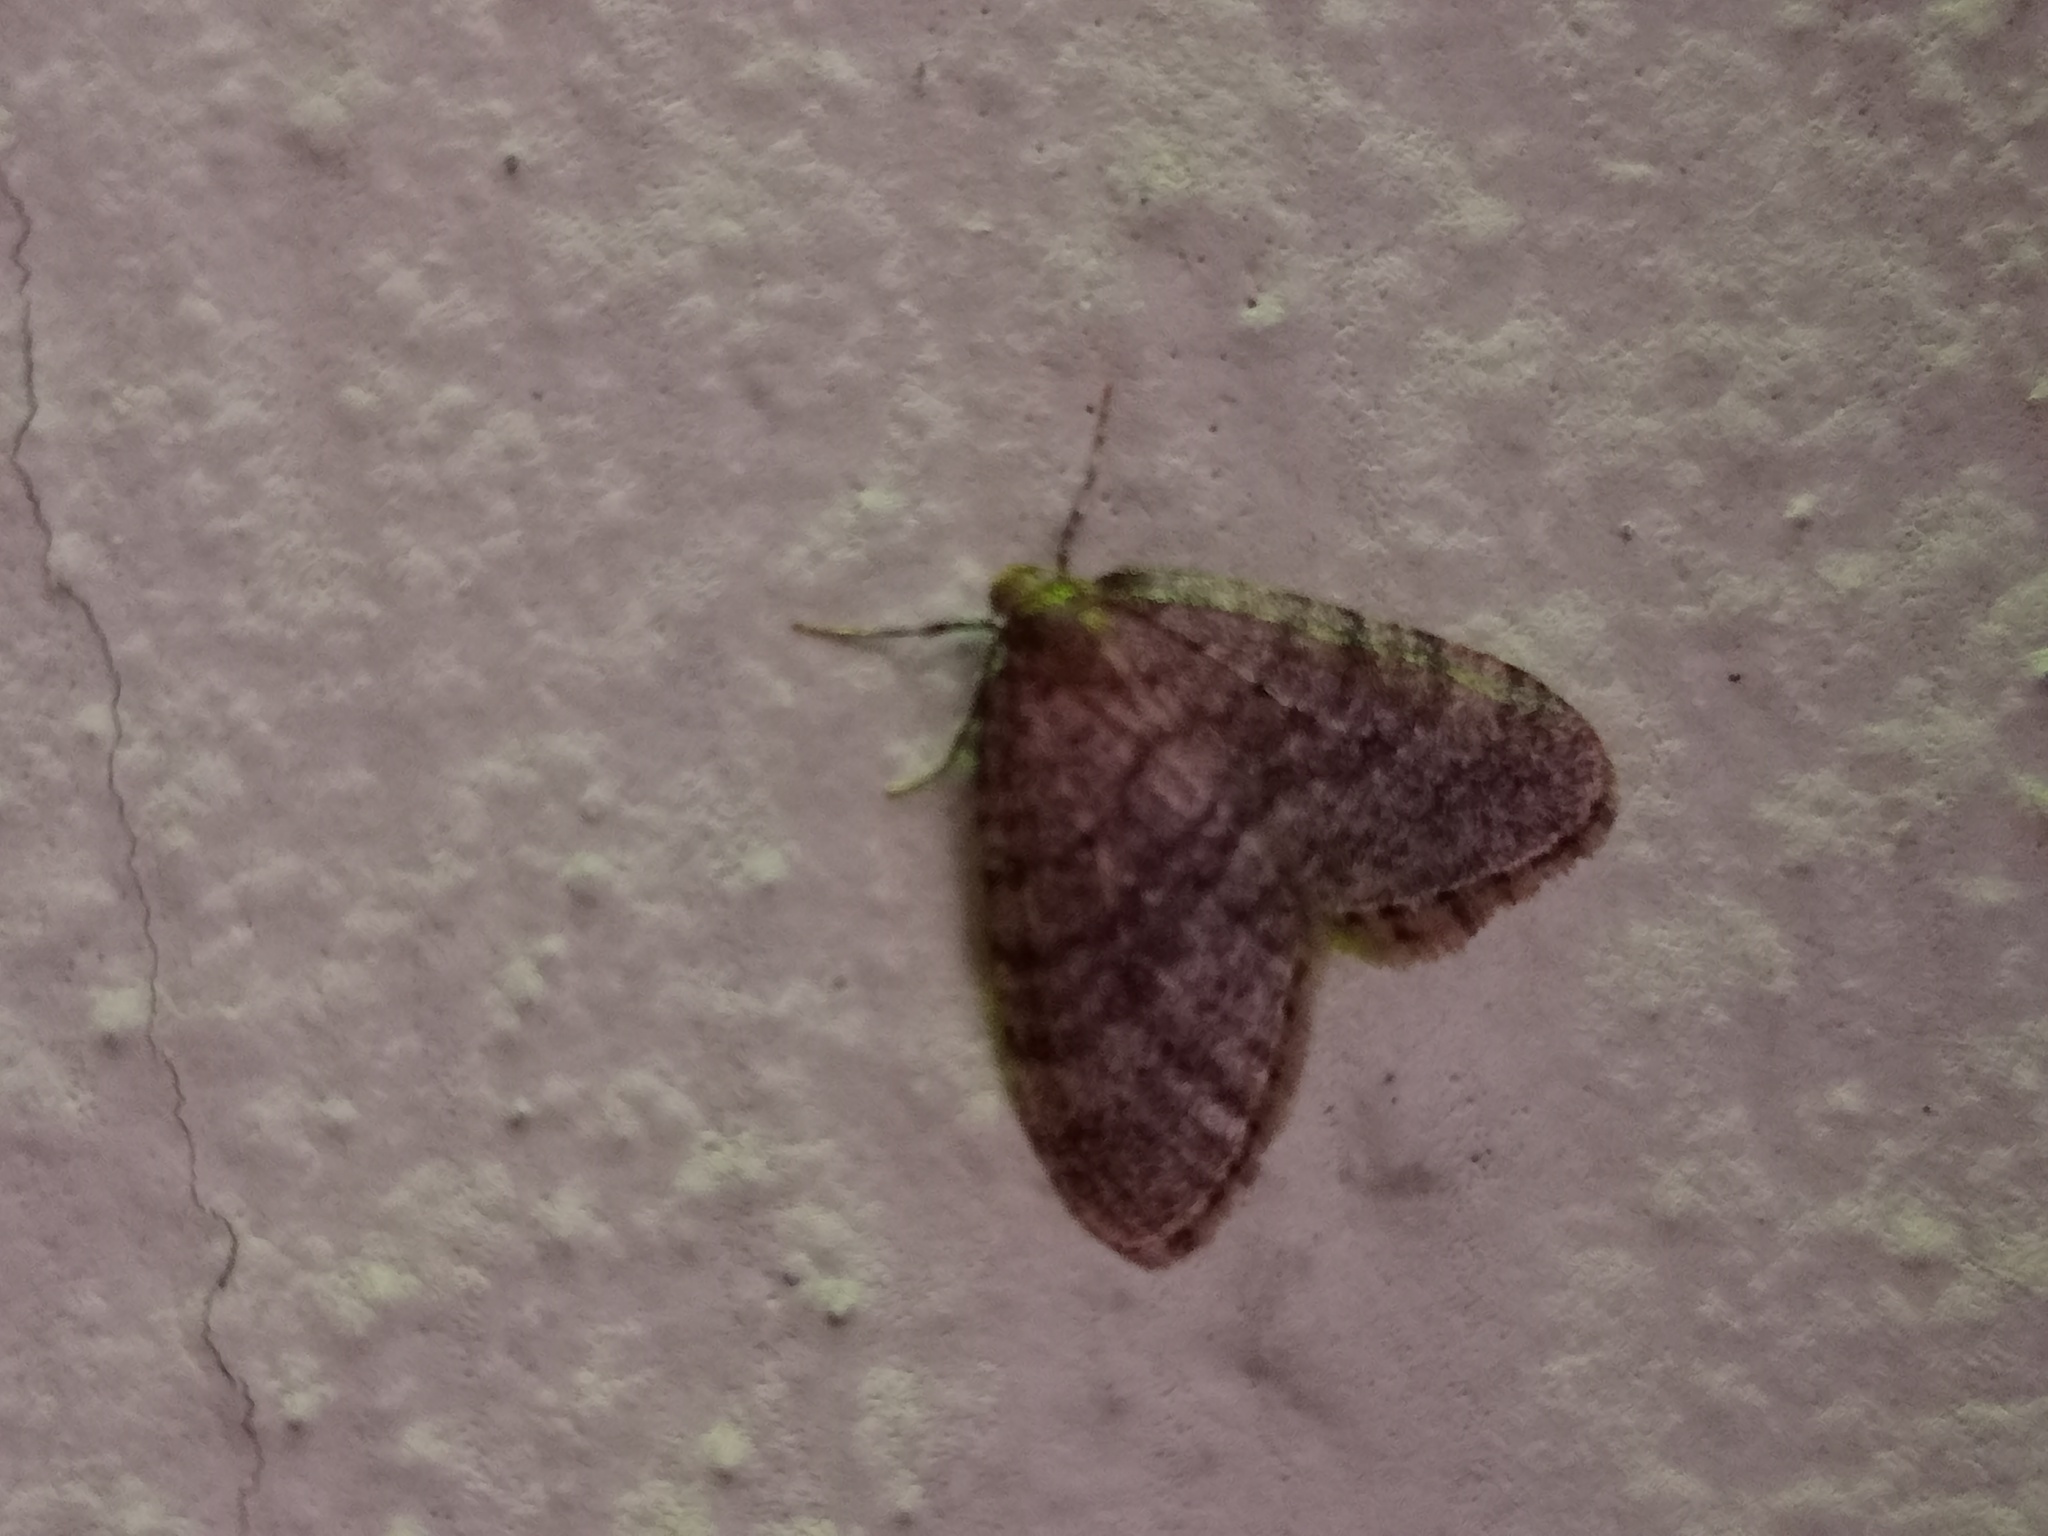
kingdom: Animalia
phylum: Arthropoda
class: Insecta
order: Lepidoptera
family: Geometridae
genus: Operophtera
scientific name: Operophtera brumata
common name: Winter moth
